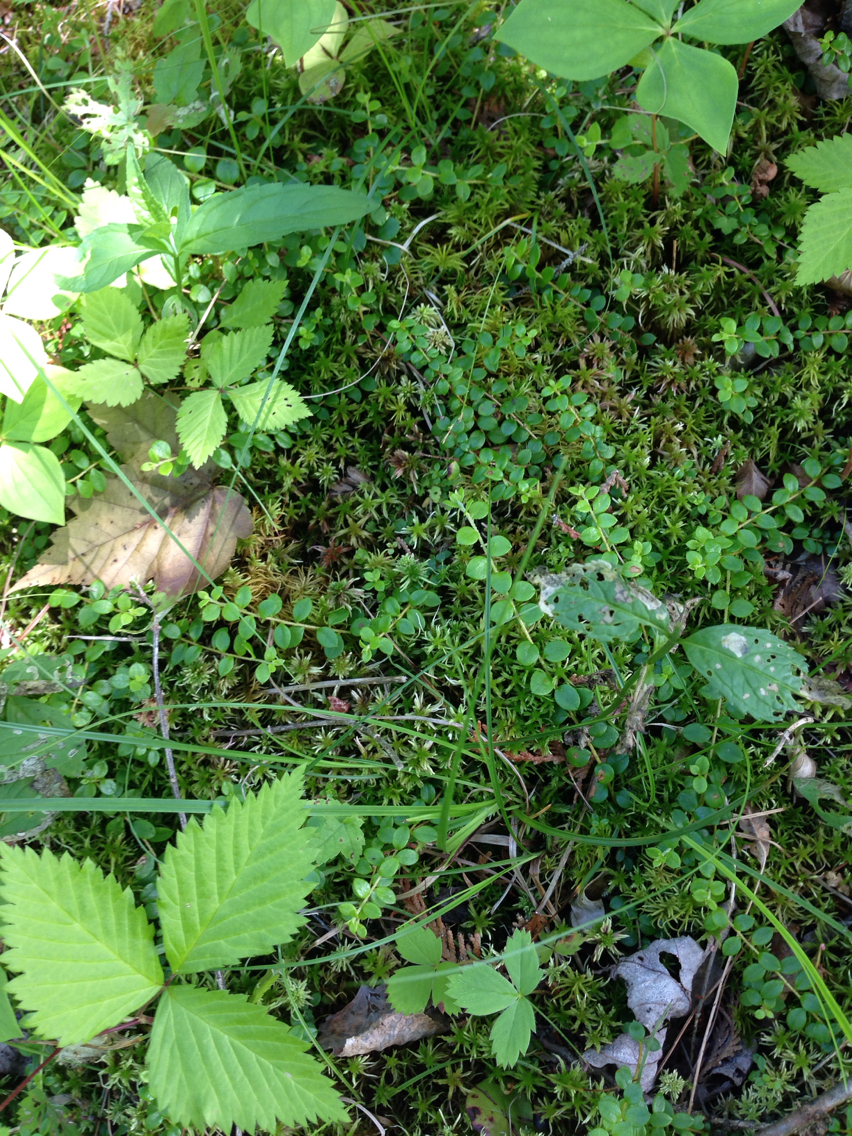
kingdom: Plantae
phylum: Tracheophyta
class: Magnoliopsida
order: Ericales
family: Ericaceae
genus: Gaultheria
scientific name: Gaultheria hispidula
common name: Cancer wintergreen
